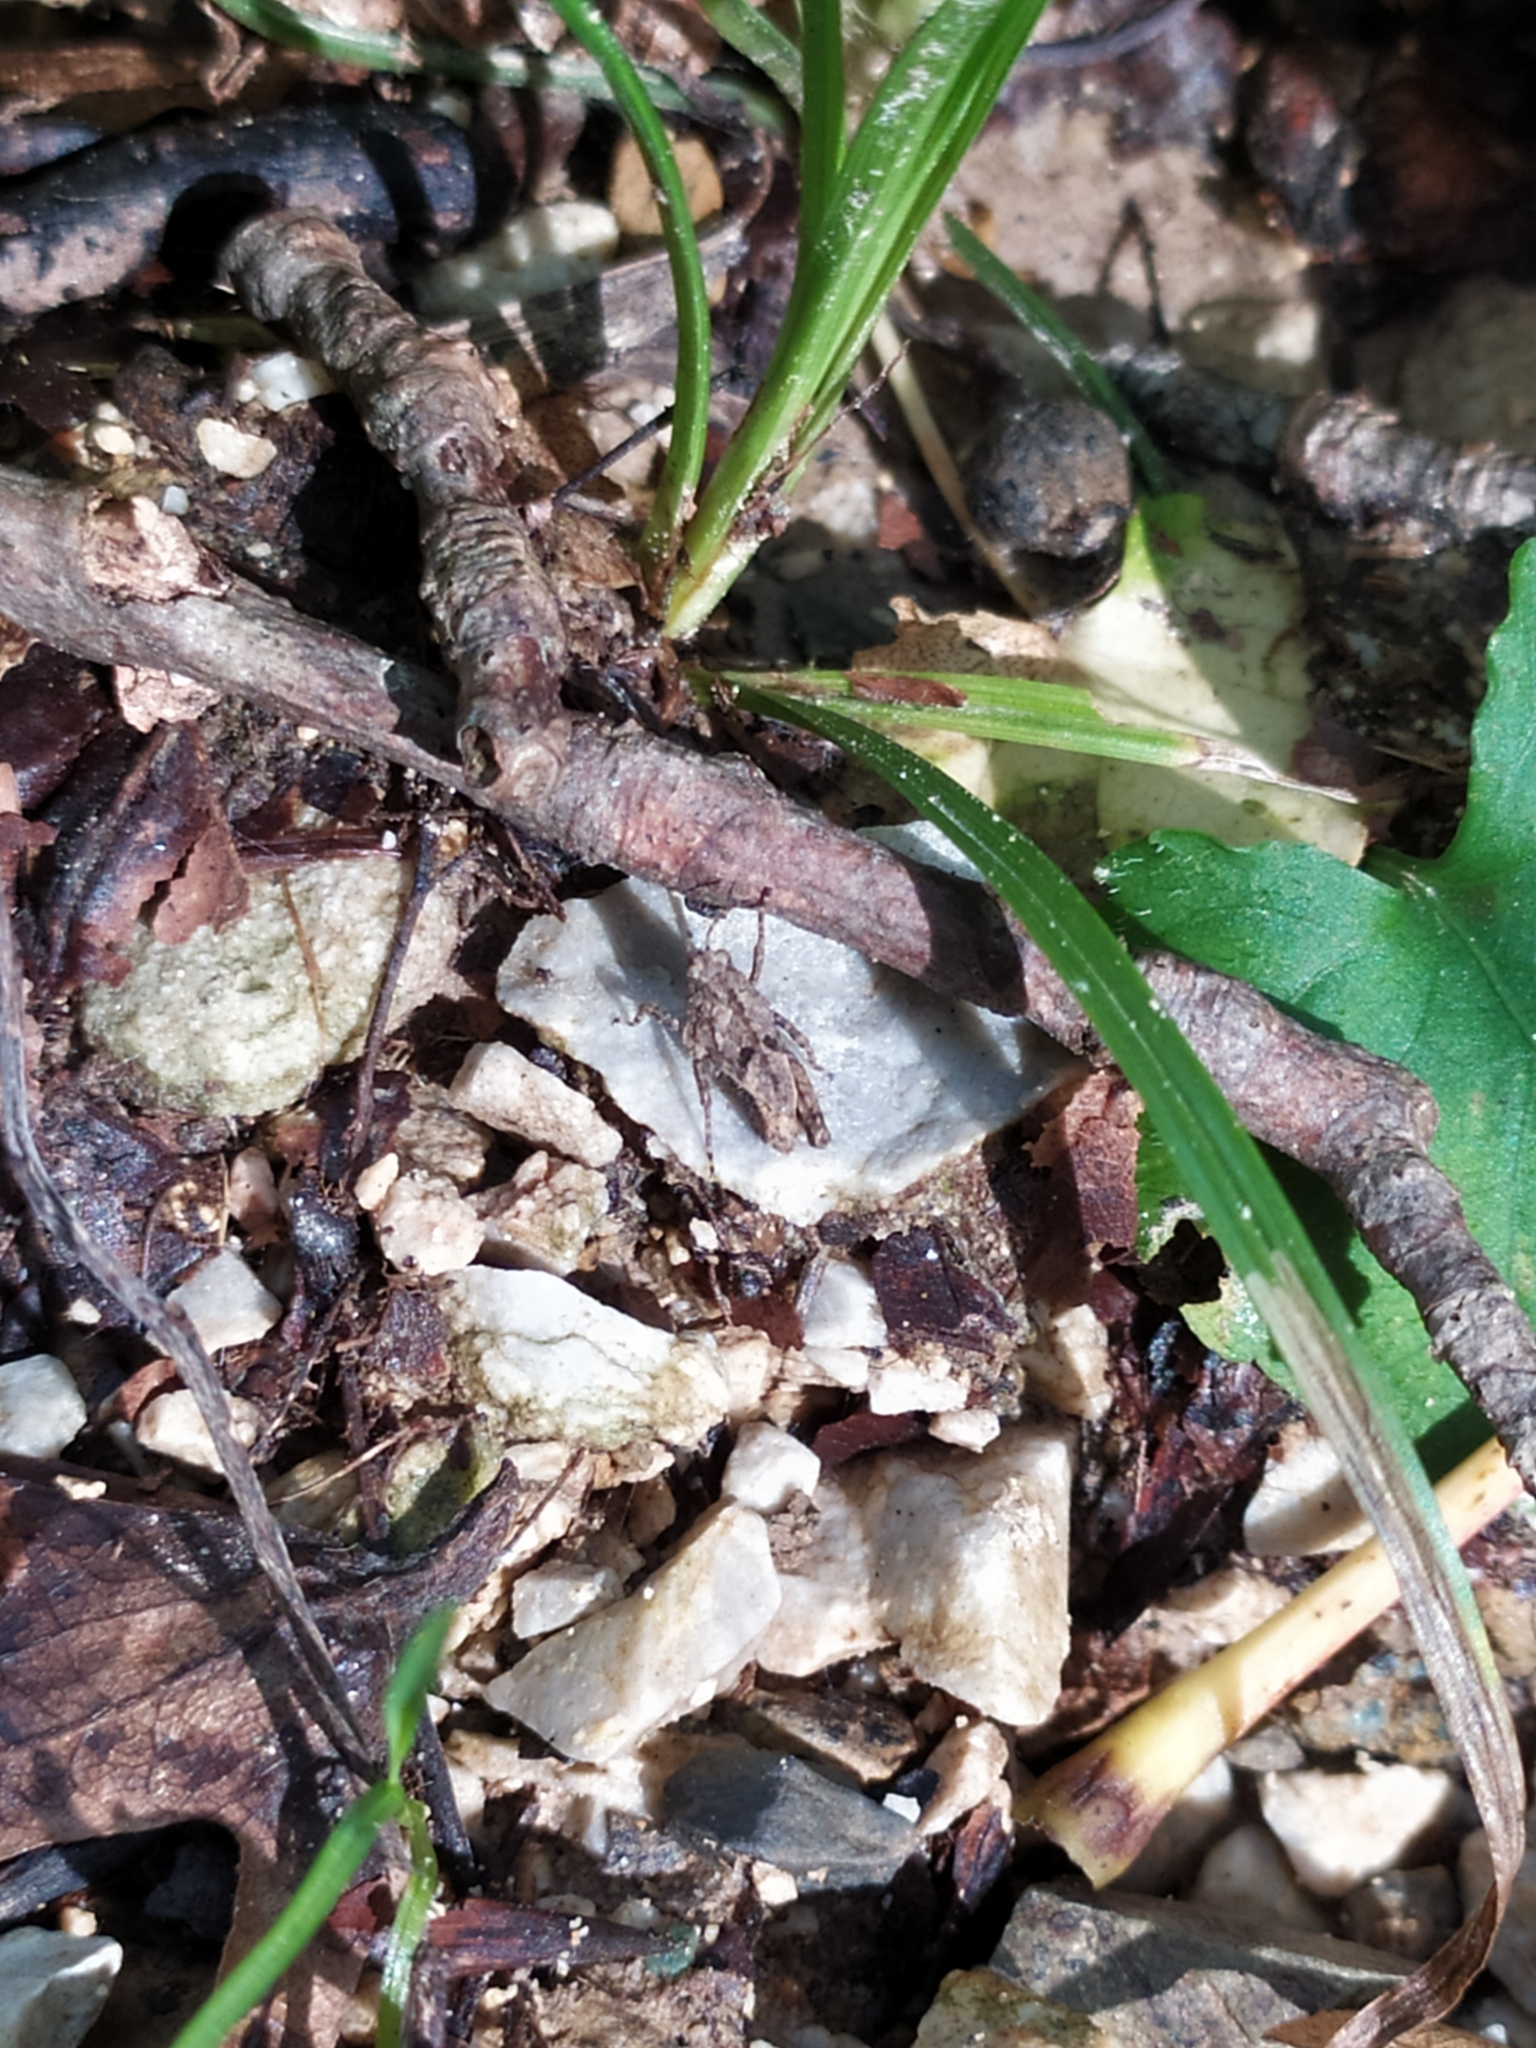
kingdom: Animalia
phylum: Arthropoda
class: Insecta
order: Orthoptera
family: Tetrigidae
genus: Tetrix
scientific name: Tetrix transsylvanica
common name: Transsylvanian wingless groundhopper
